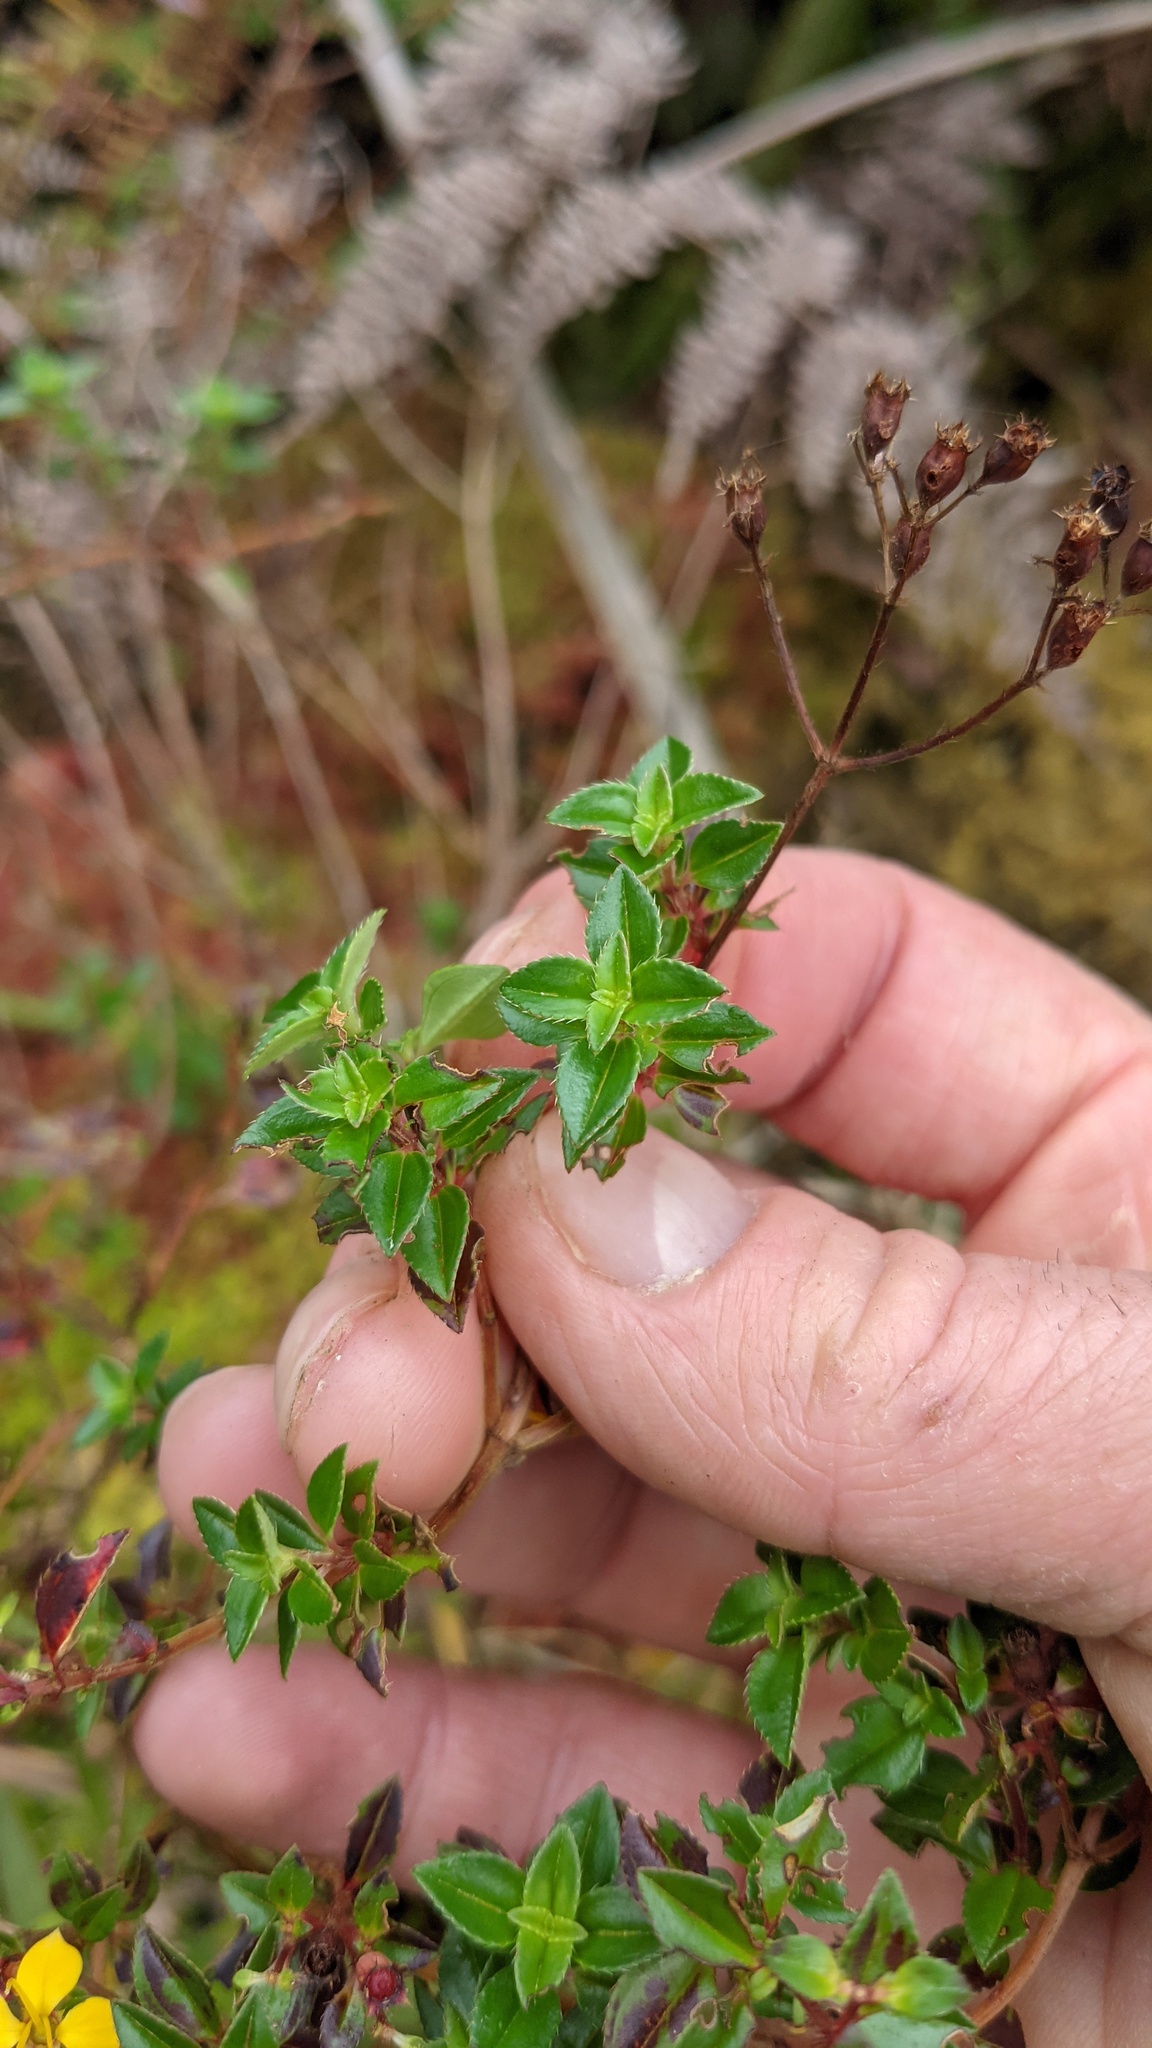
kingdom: Plantae
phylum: Tracheophyta
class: Magnoliopsida
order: Myrtales
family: Melastomataceae
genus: Chaetolepis
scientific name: Chaetolepis alpina
